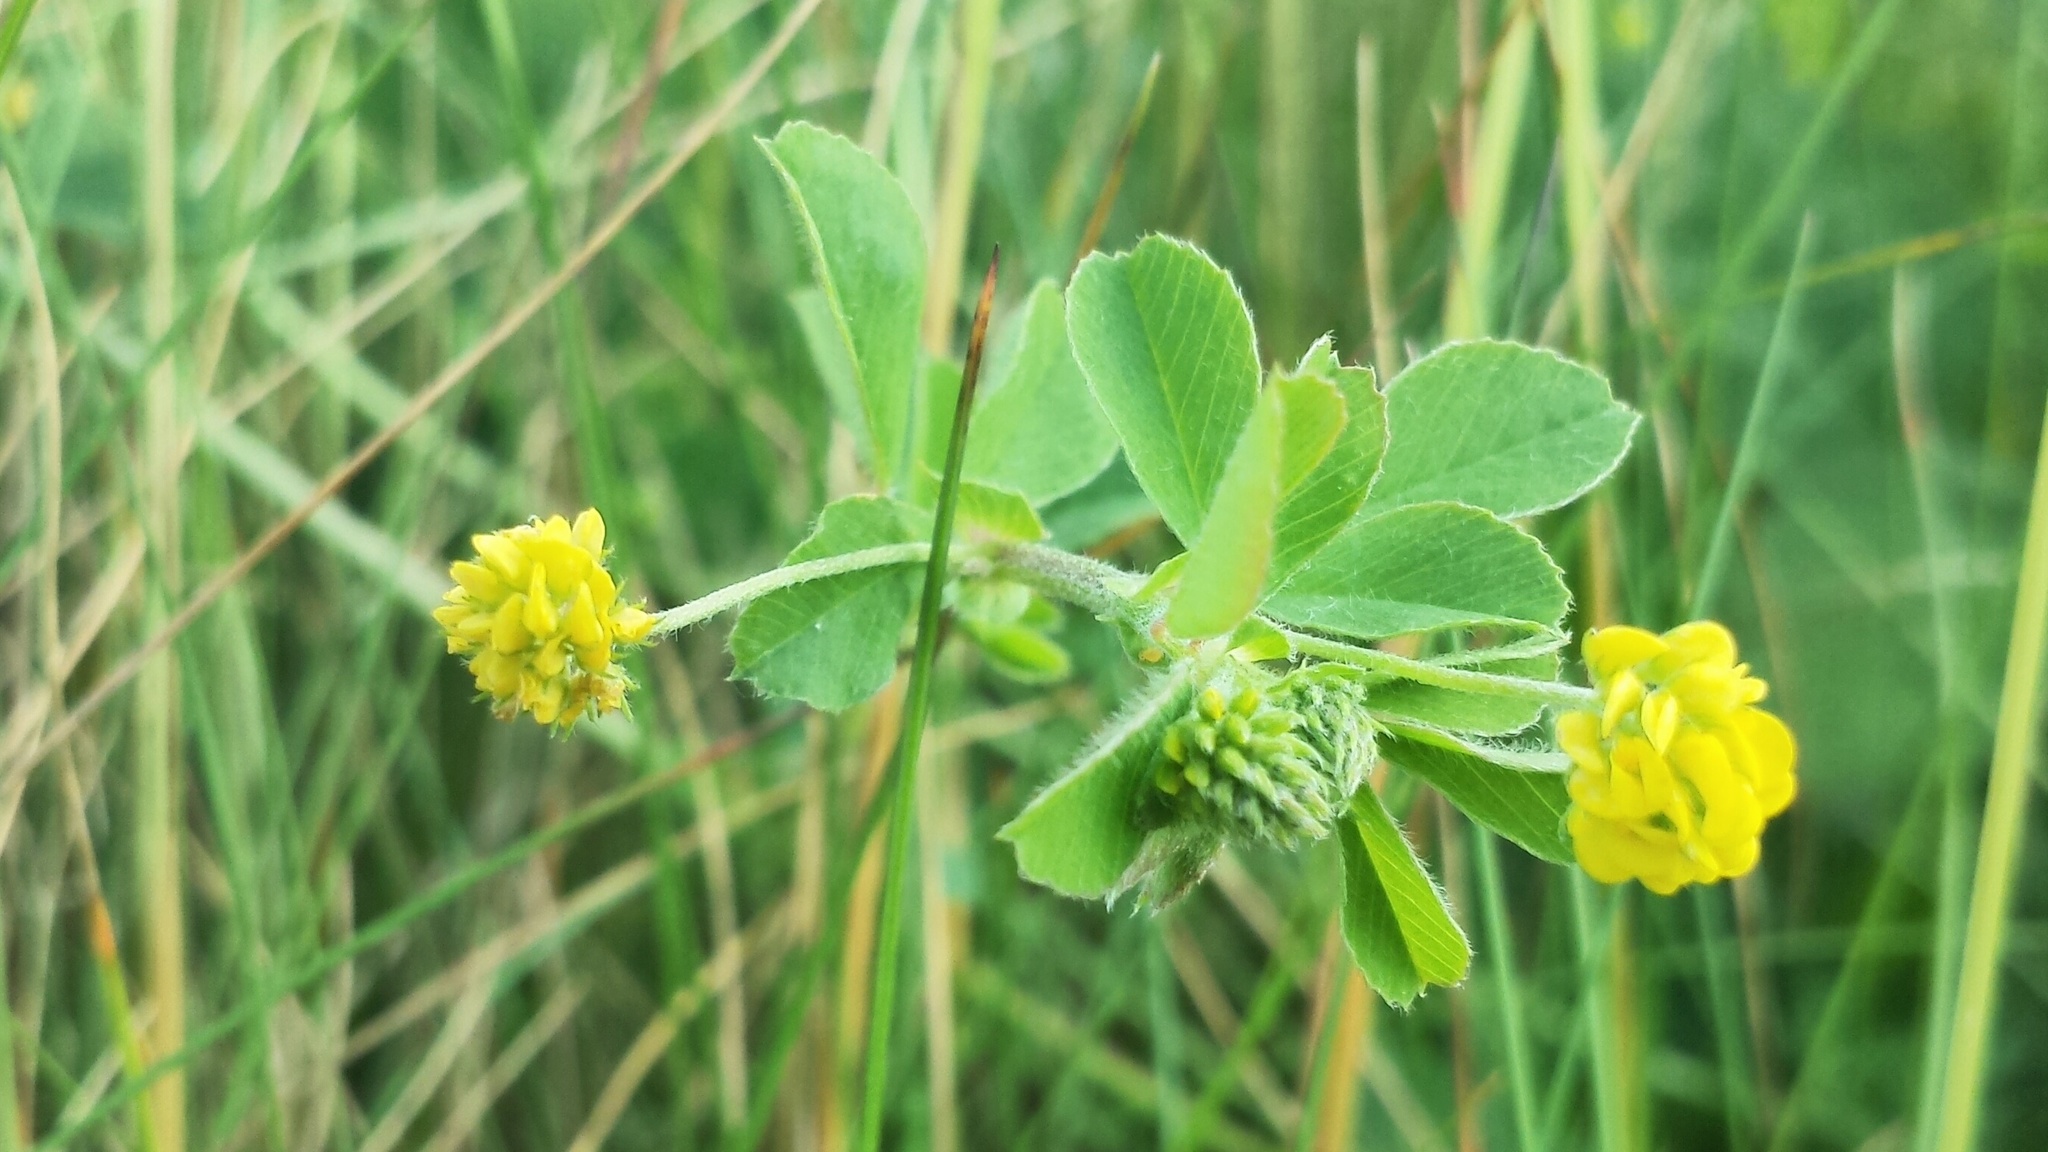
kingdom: Plantae
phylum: Tracheophyta
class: Magnoliopsida
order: Fabales
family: Fabaceae
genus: Medicago
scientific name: Medicago lupulina
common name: Black medick
